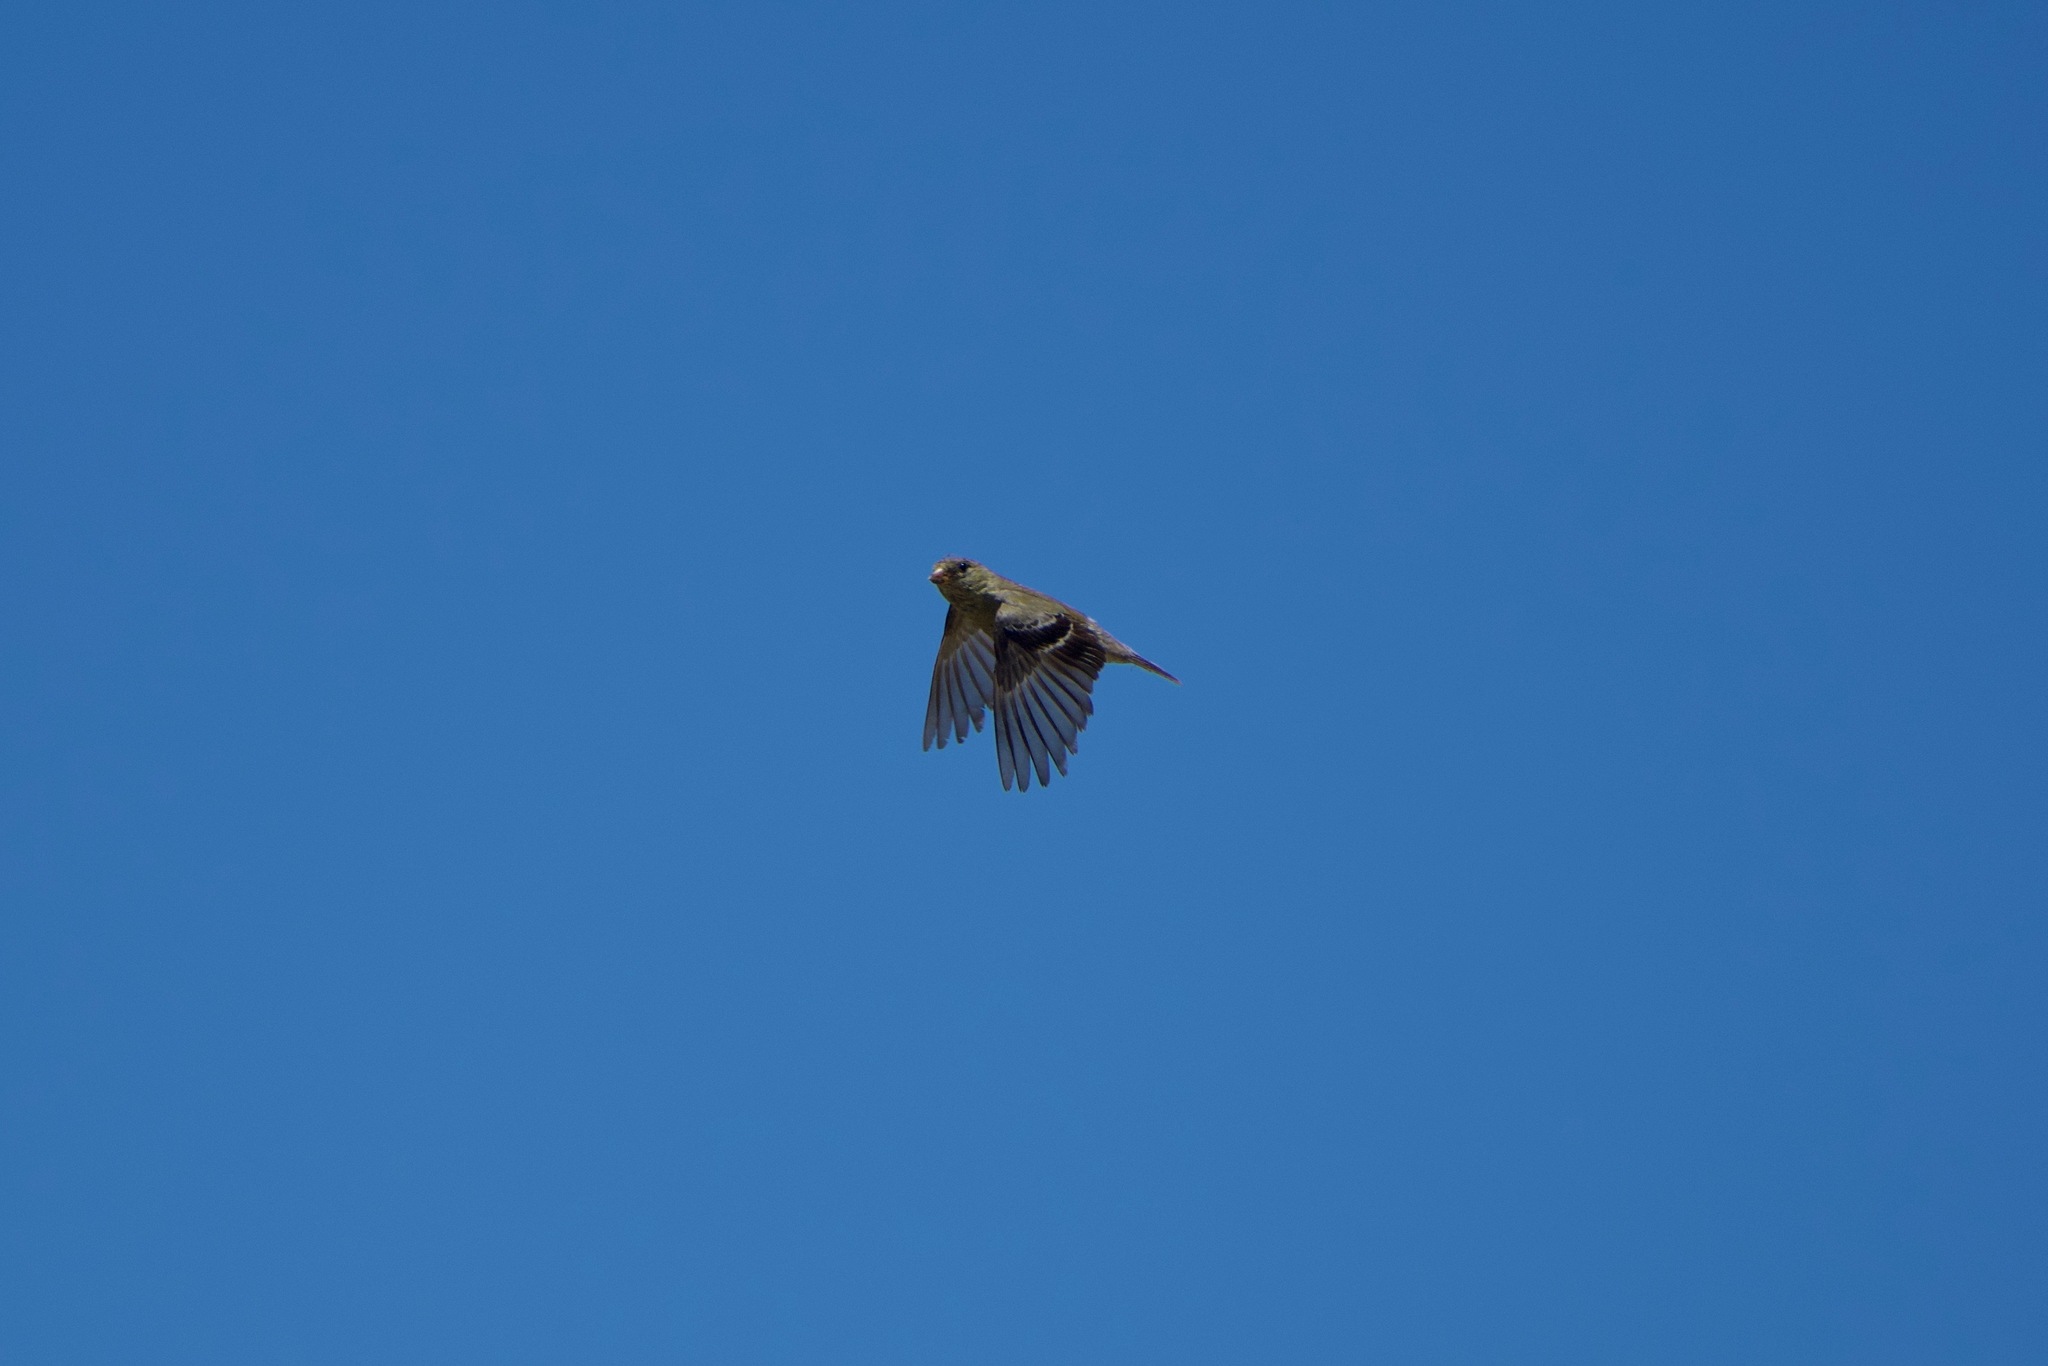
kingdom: Animalia
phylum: Chordata
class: Aves
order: Passeriformes
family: Fringillidae
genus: Spinus
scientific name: Spinus tristis
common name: American goldfinch
